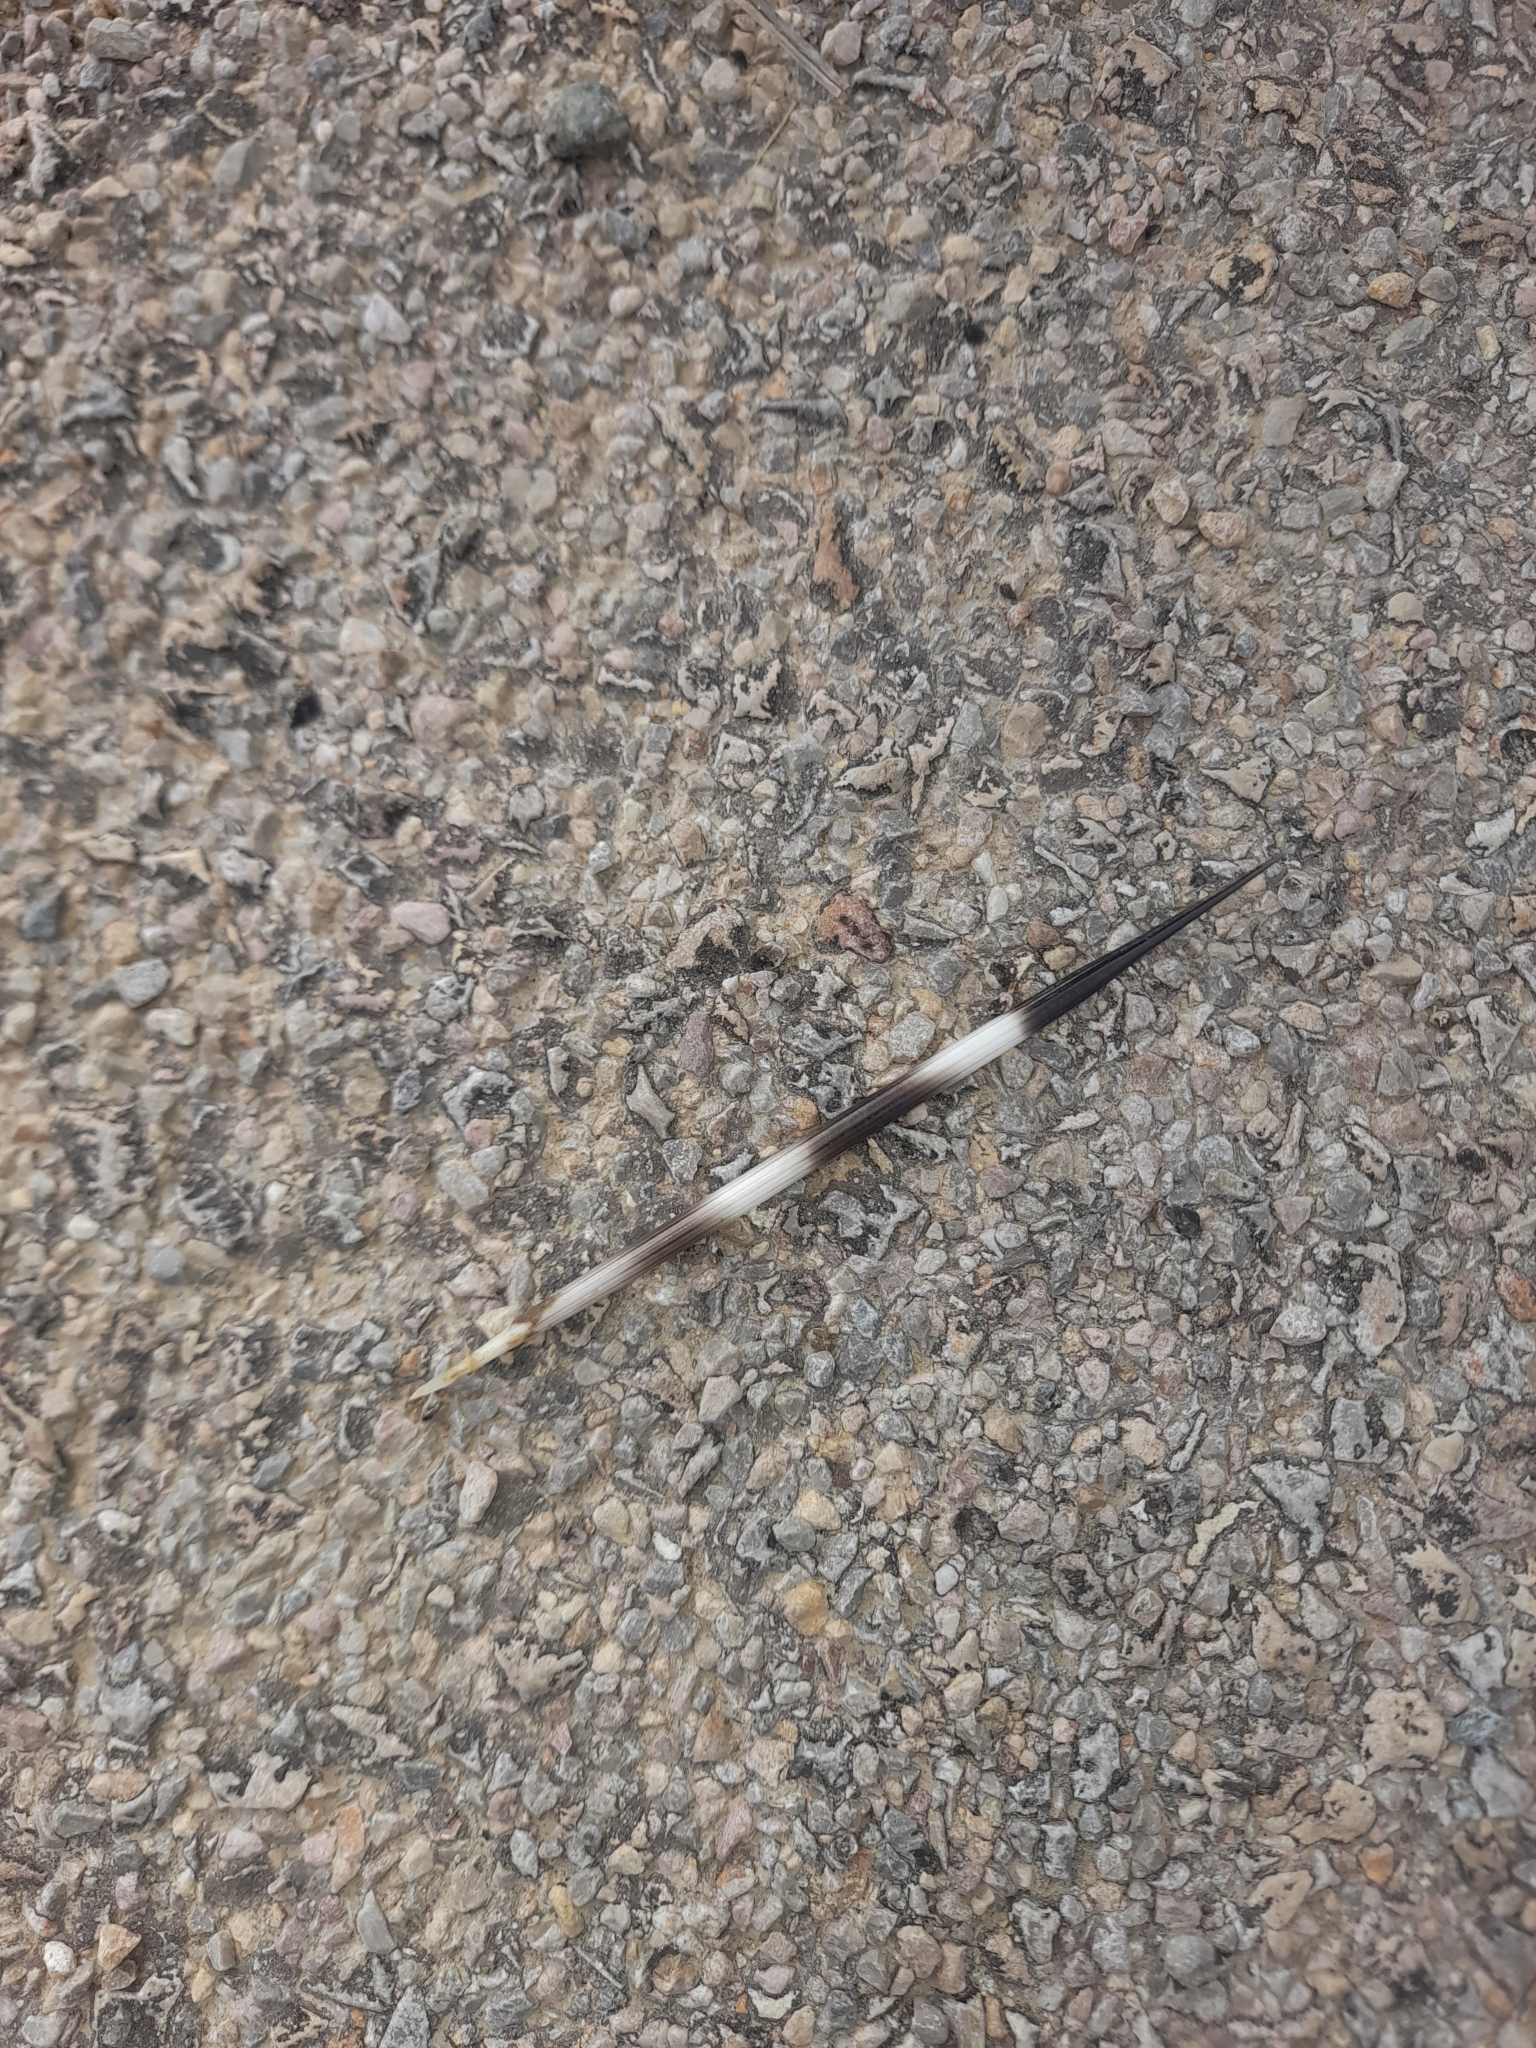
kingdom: Animalia
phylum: Chordata
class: Mammalia
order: Rodentia
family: Hystricidae
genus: Hystrix
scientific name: Hystrix cristata
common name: Crested porcupine
